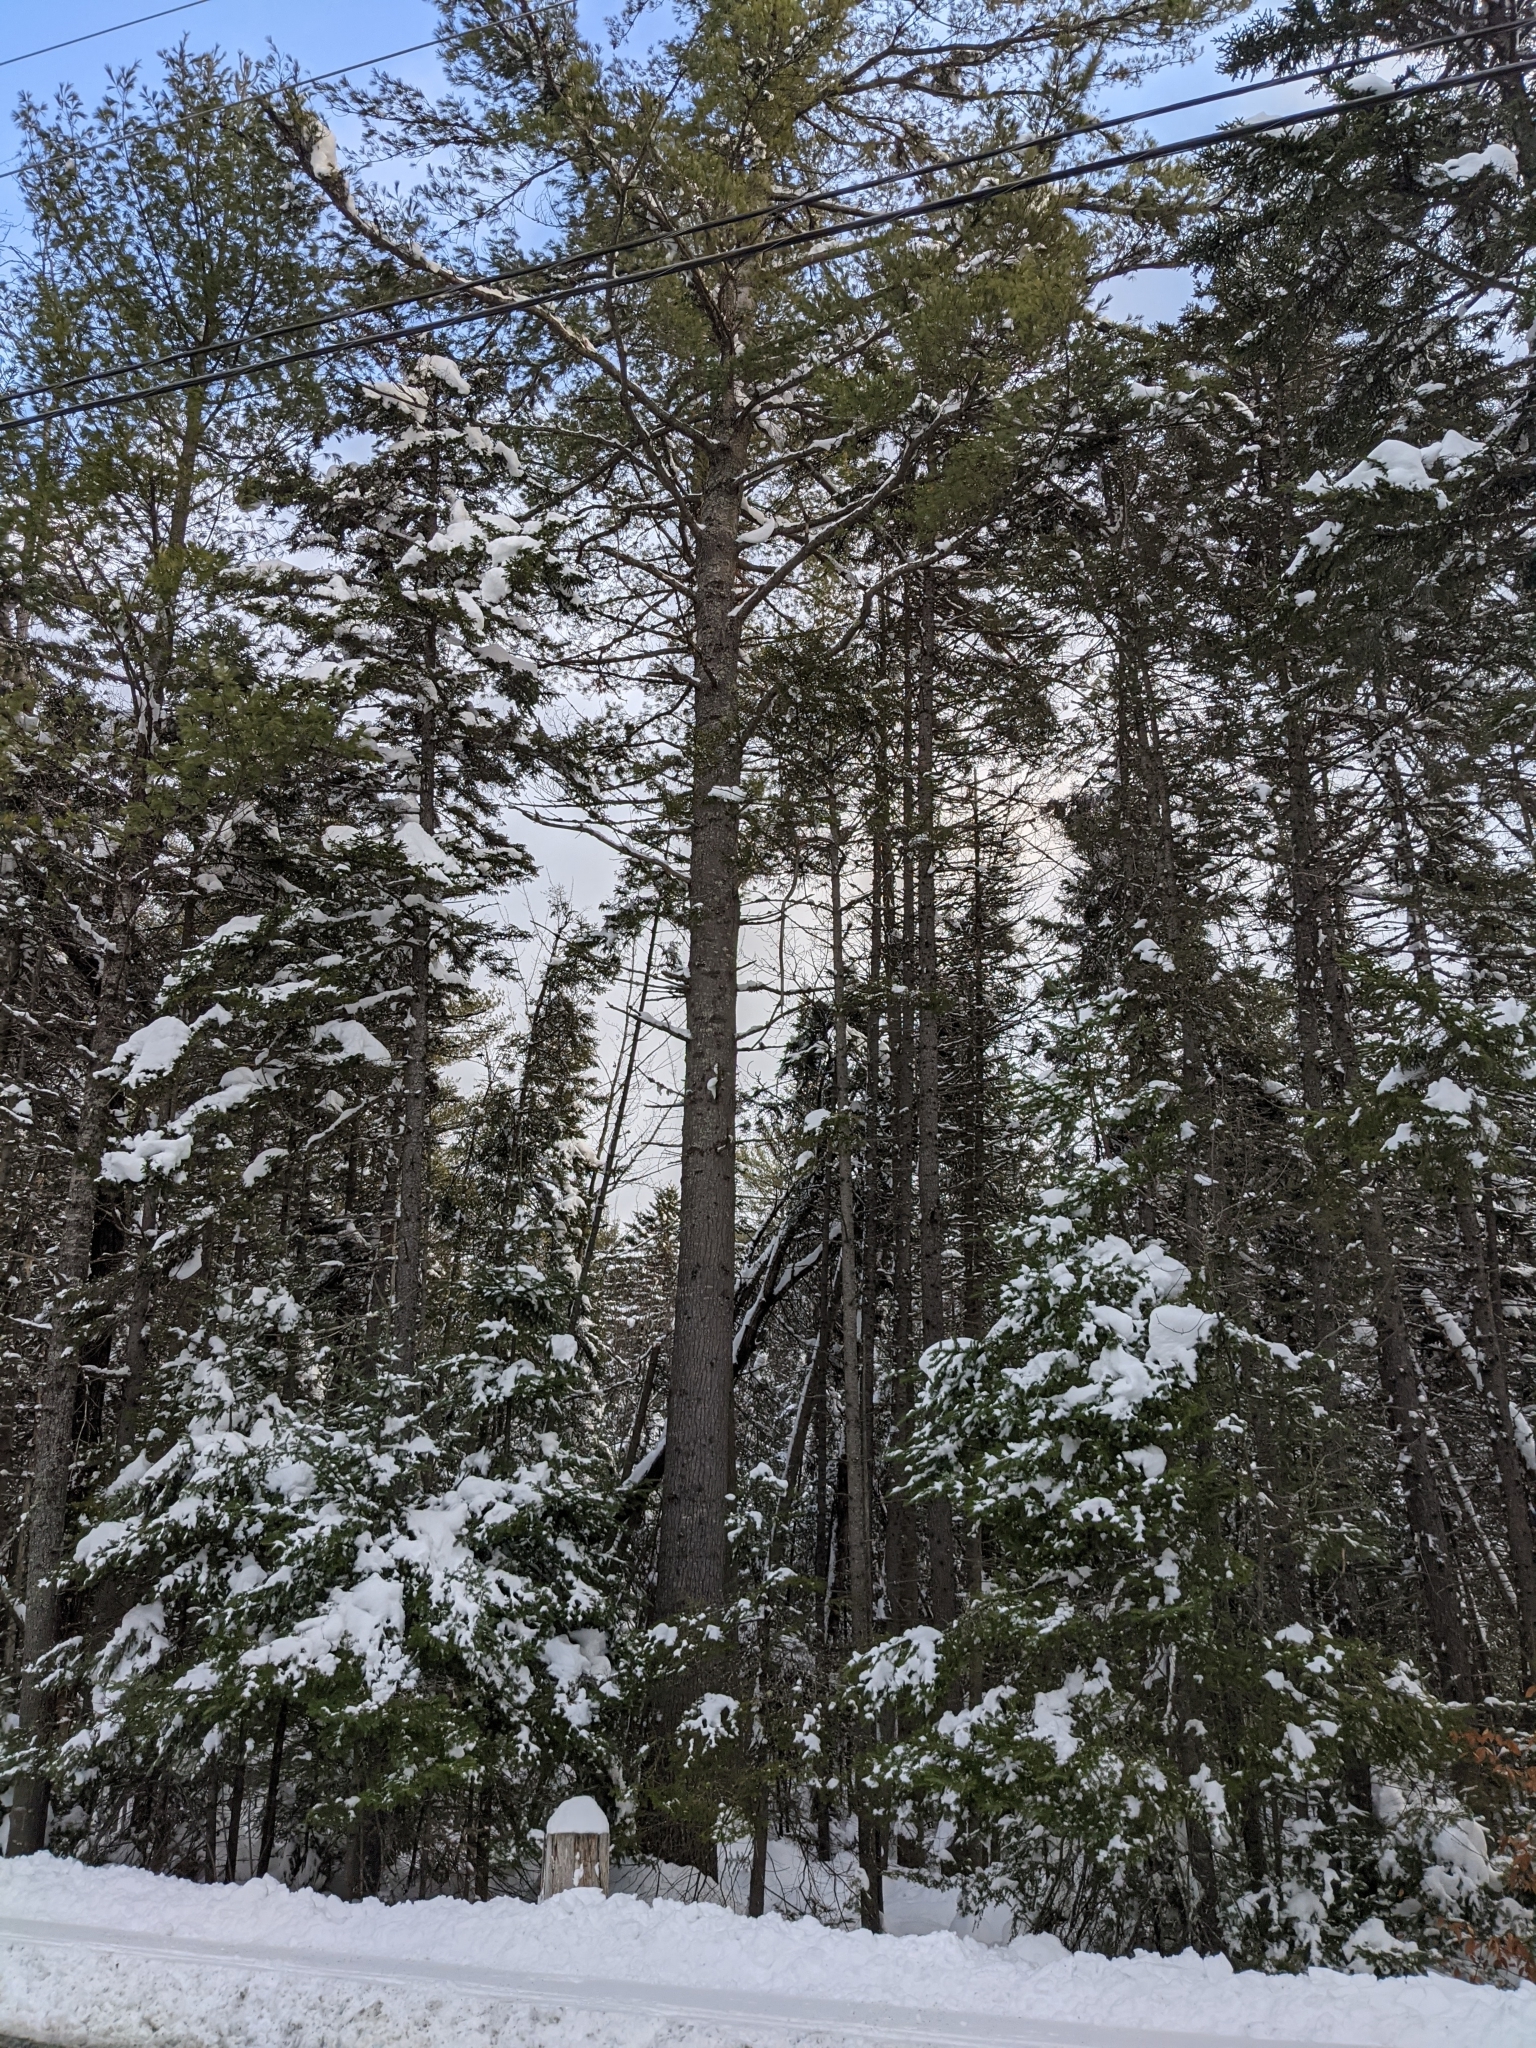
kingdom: Plantae
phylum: Tracheophyta
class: Pinopsida
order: Pinales
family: Pinaceae
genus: Pinus
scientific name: Pinus strobus
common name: Weymouth pine
